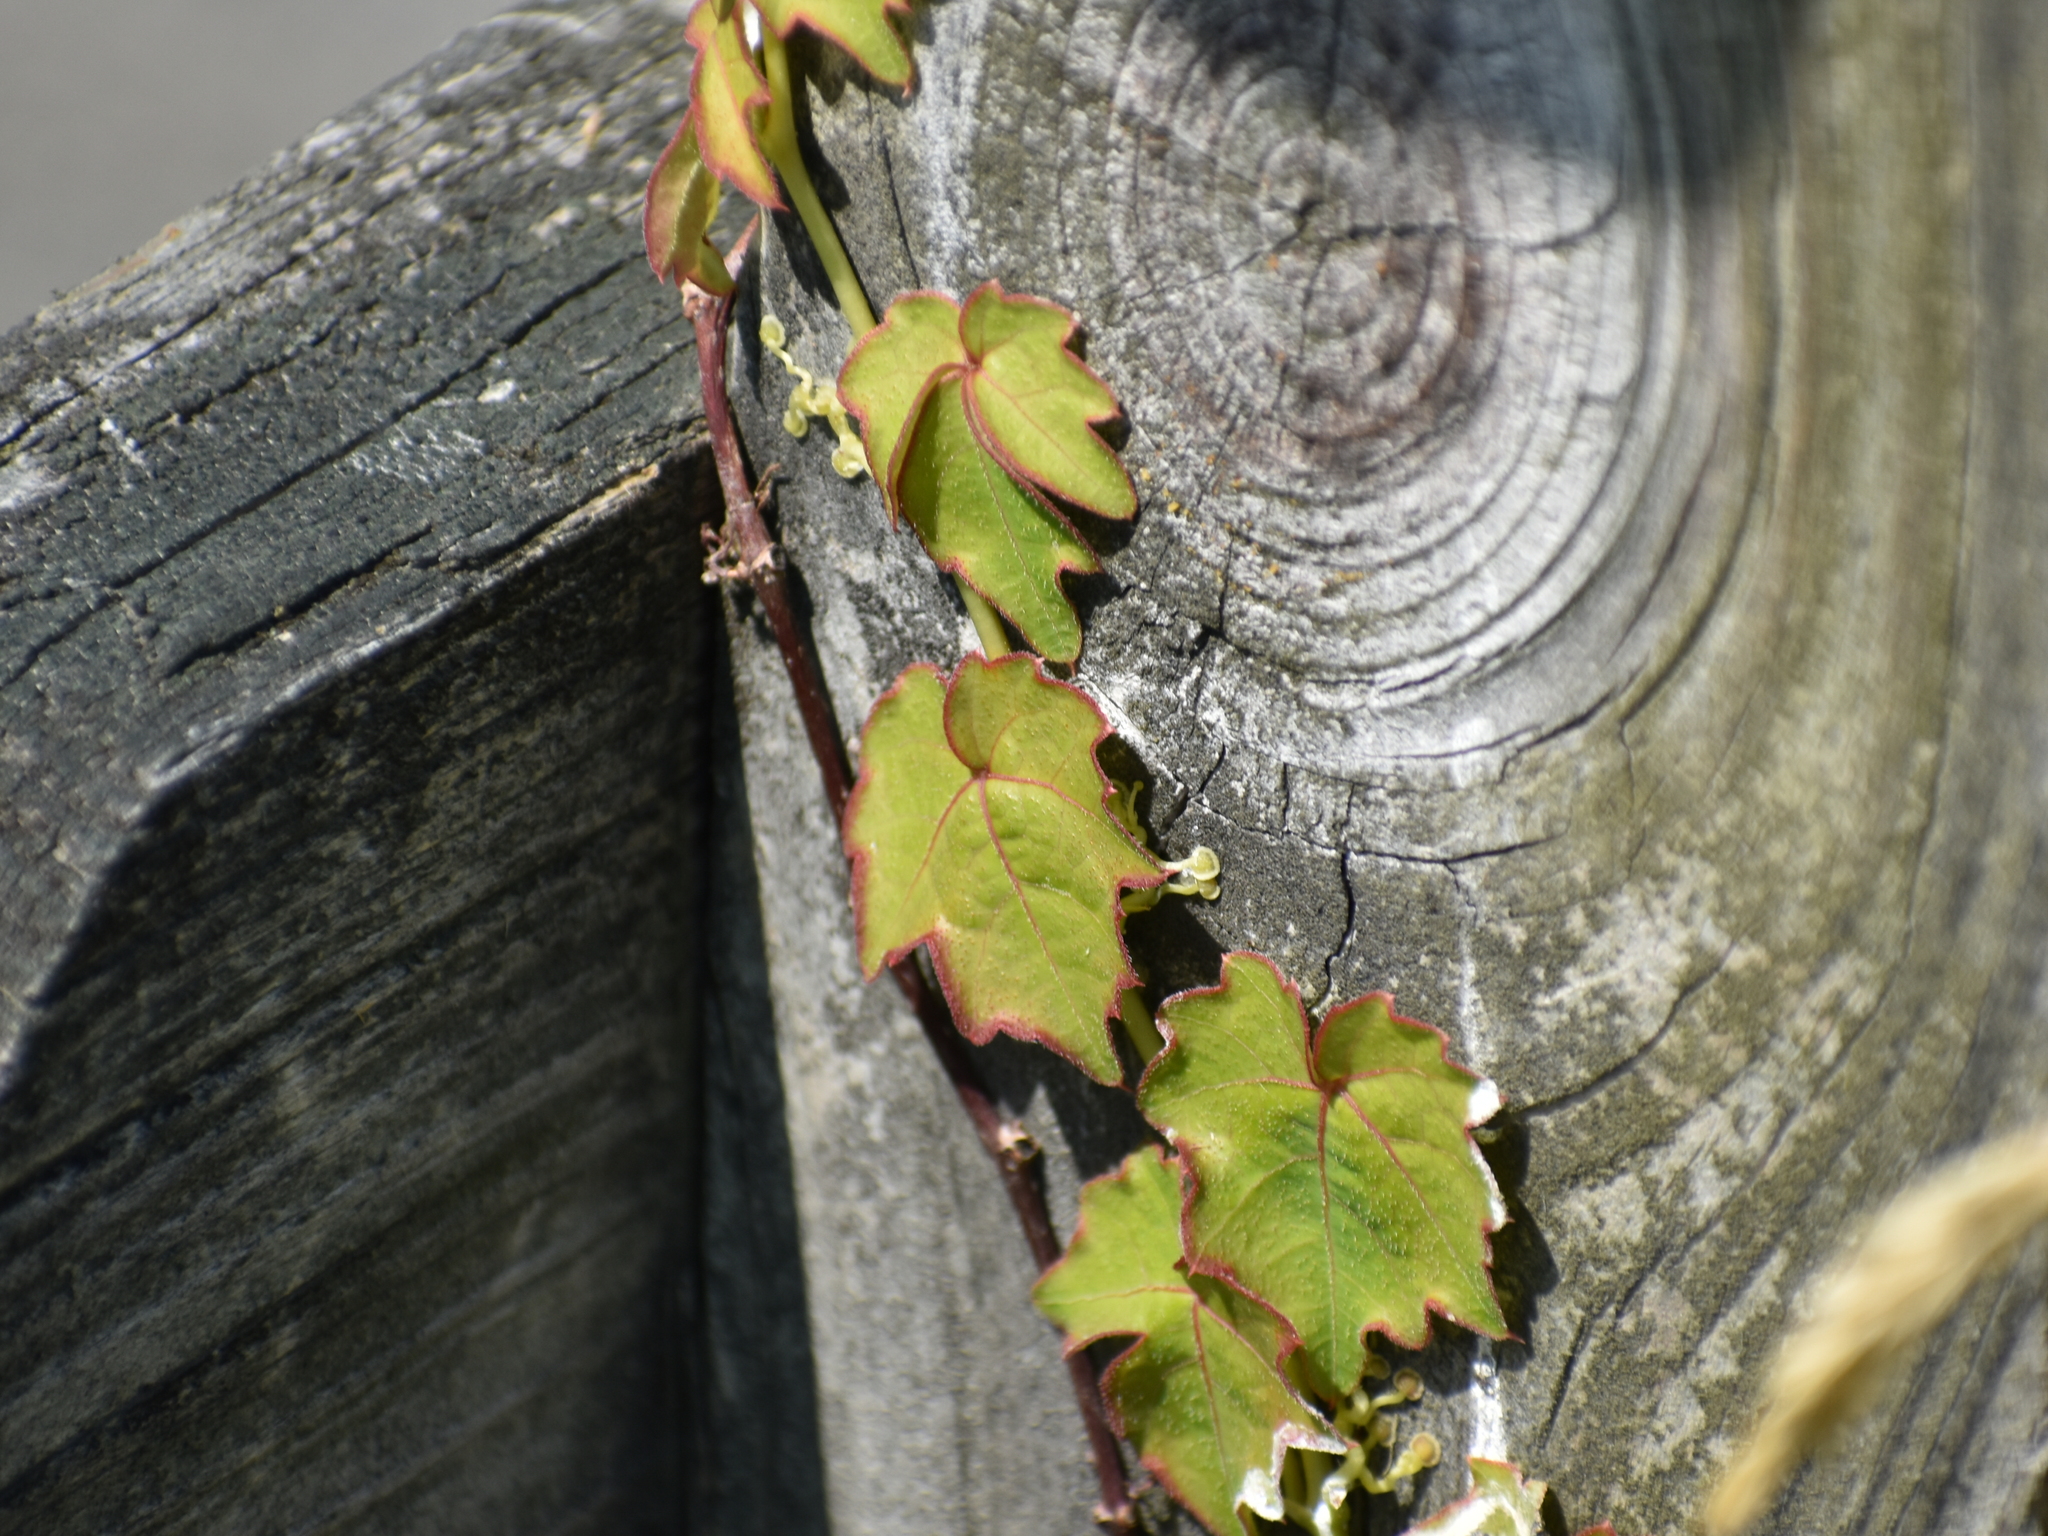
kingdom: Plantae
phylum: Tracheophyta
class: Magnoliopsida
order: Vitales
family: Vitaceae
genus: Parthenocissus
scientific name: Parthenocissus tricuspidata
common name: Boston ivy
